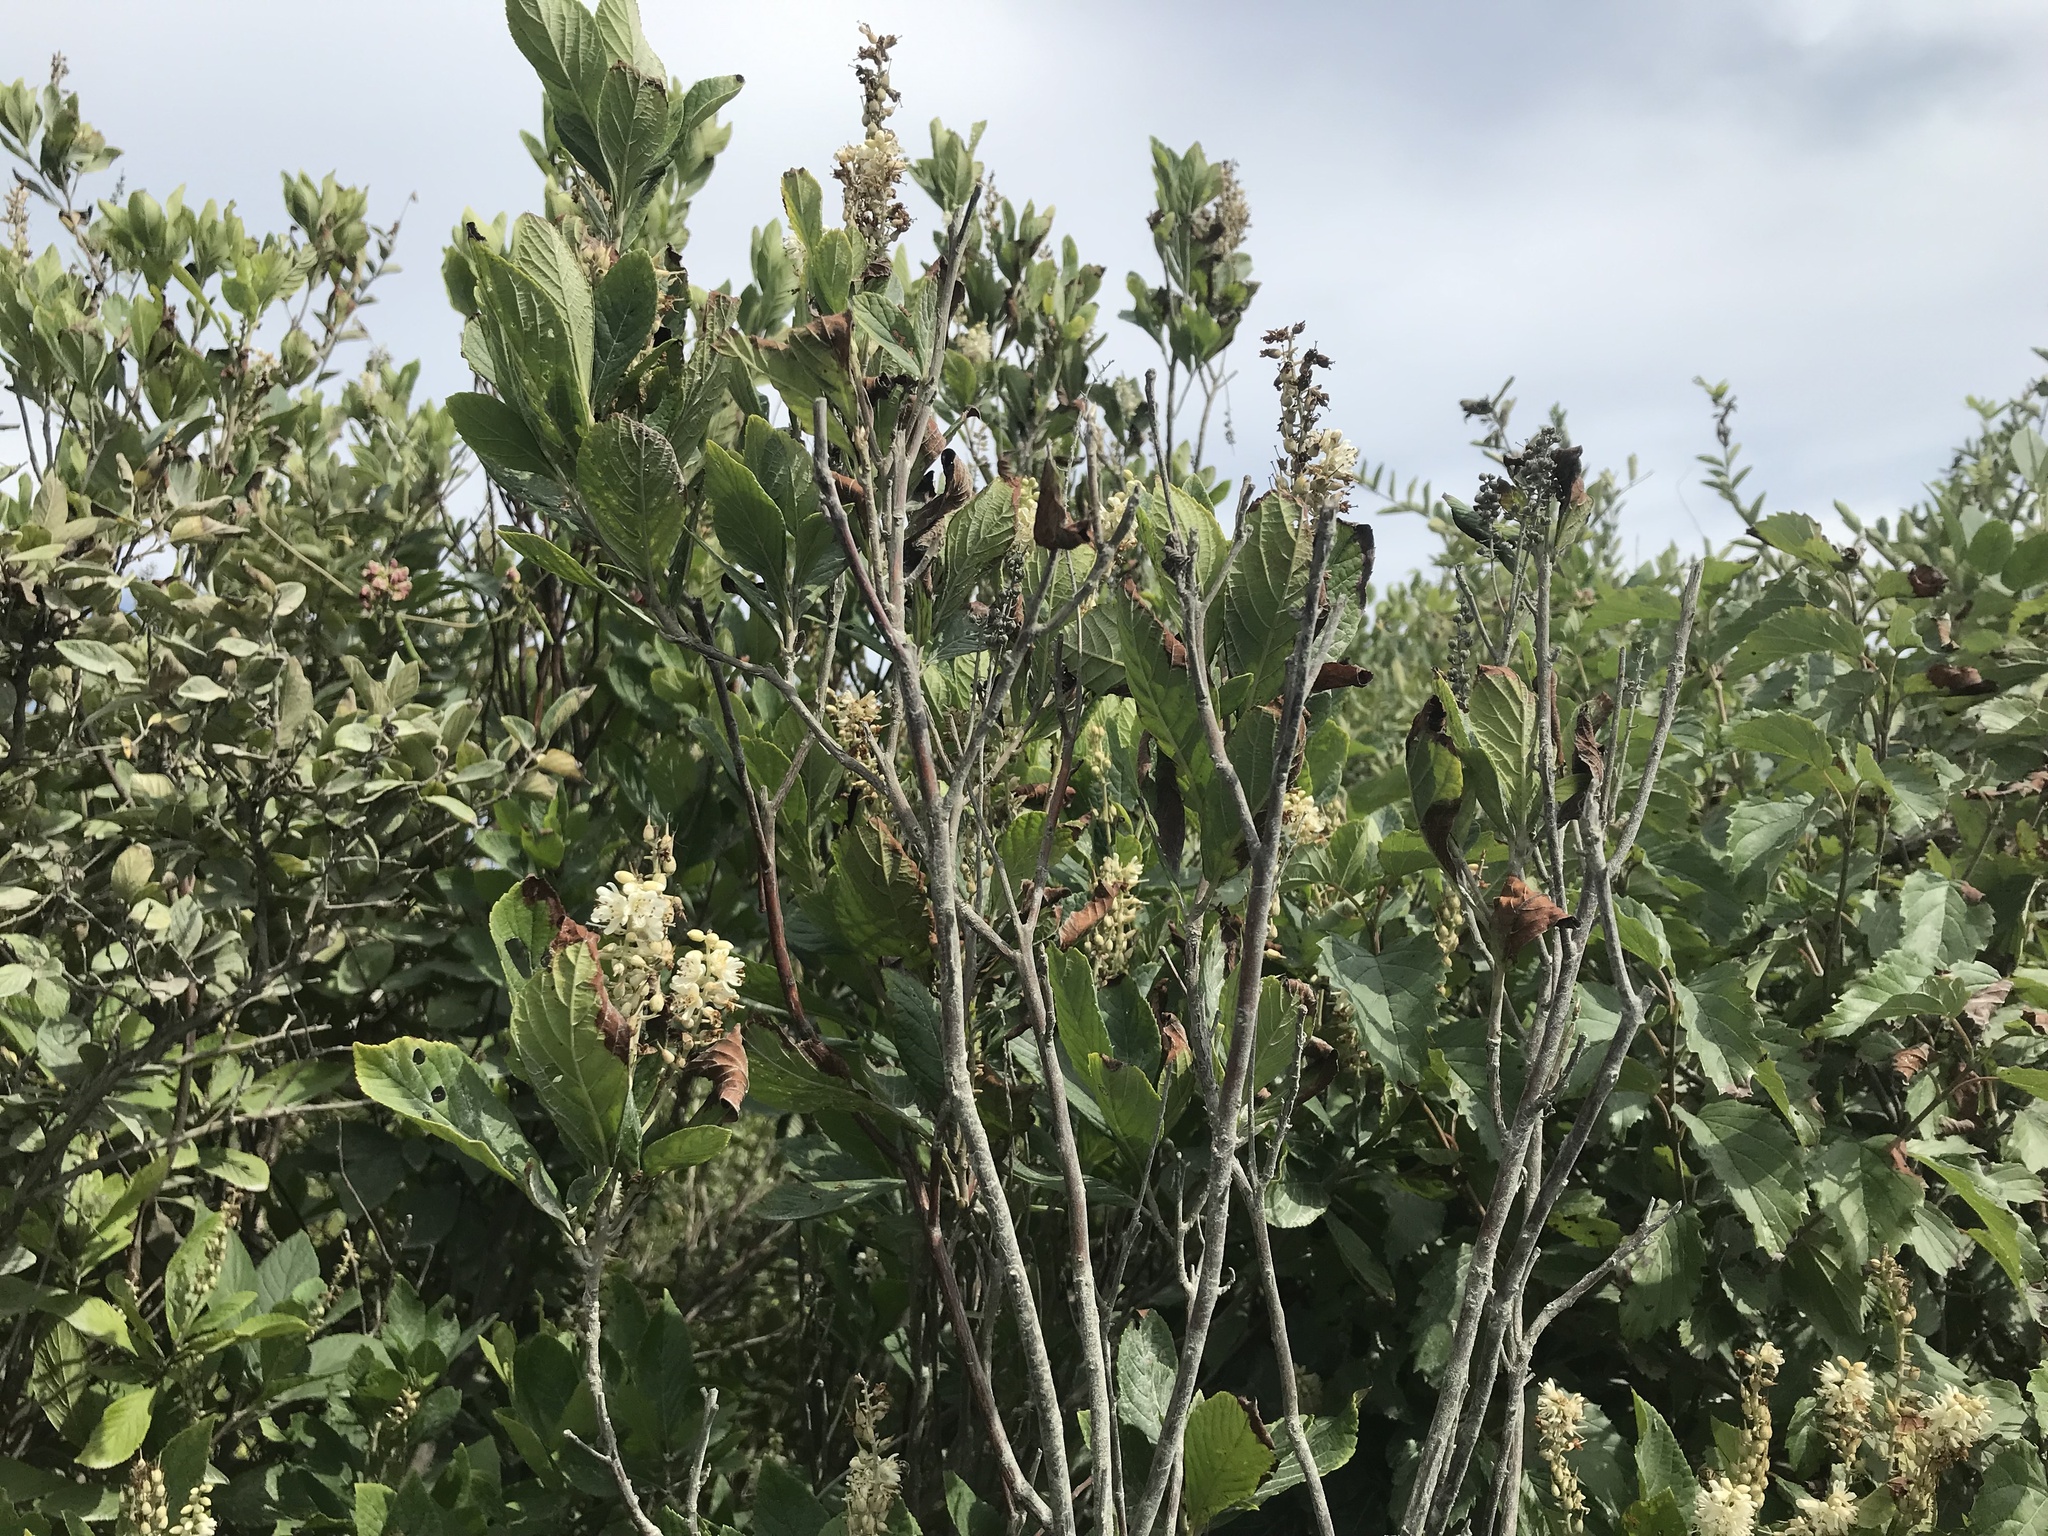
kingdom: Plantae
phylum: Tracheophyta
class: Magnoliopsida
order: Ericales
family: Clethraceae
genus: Clethra
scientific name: Clethra alnifolia
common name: Sweet pepperbush
